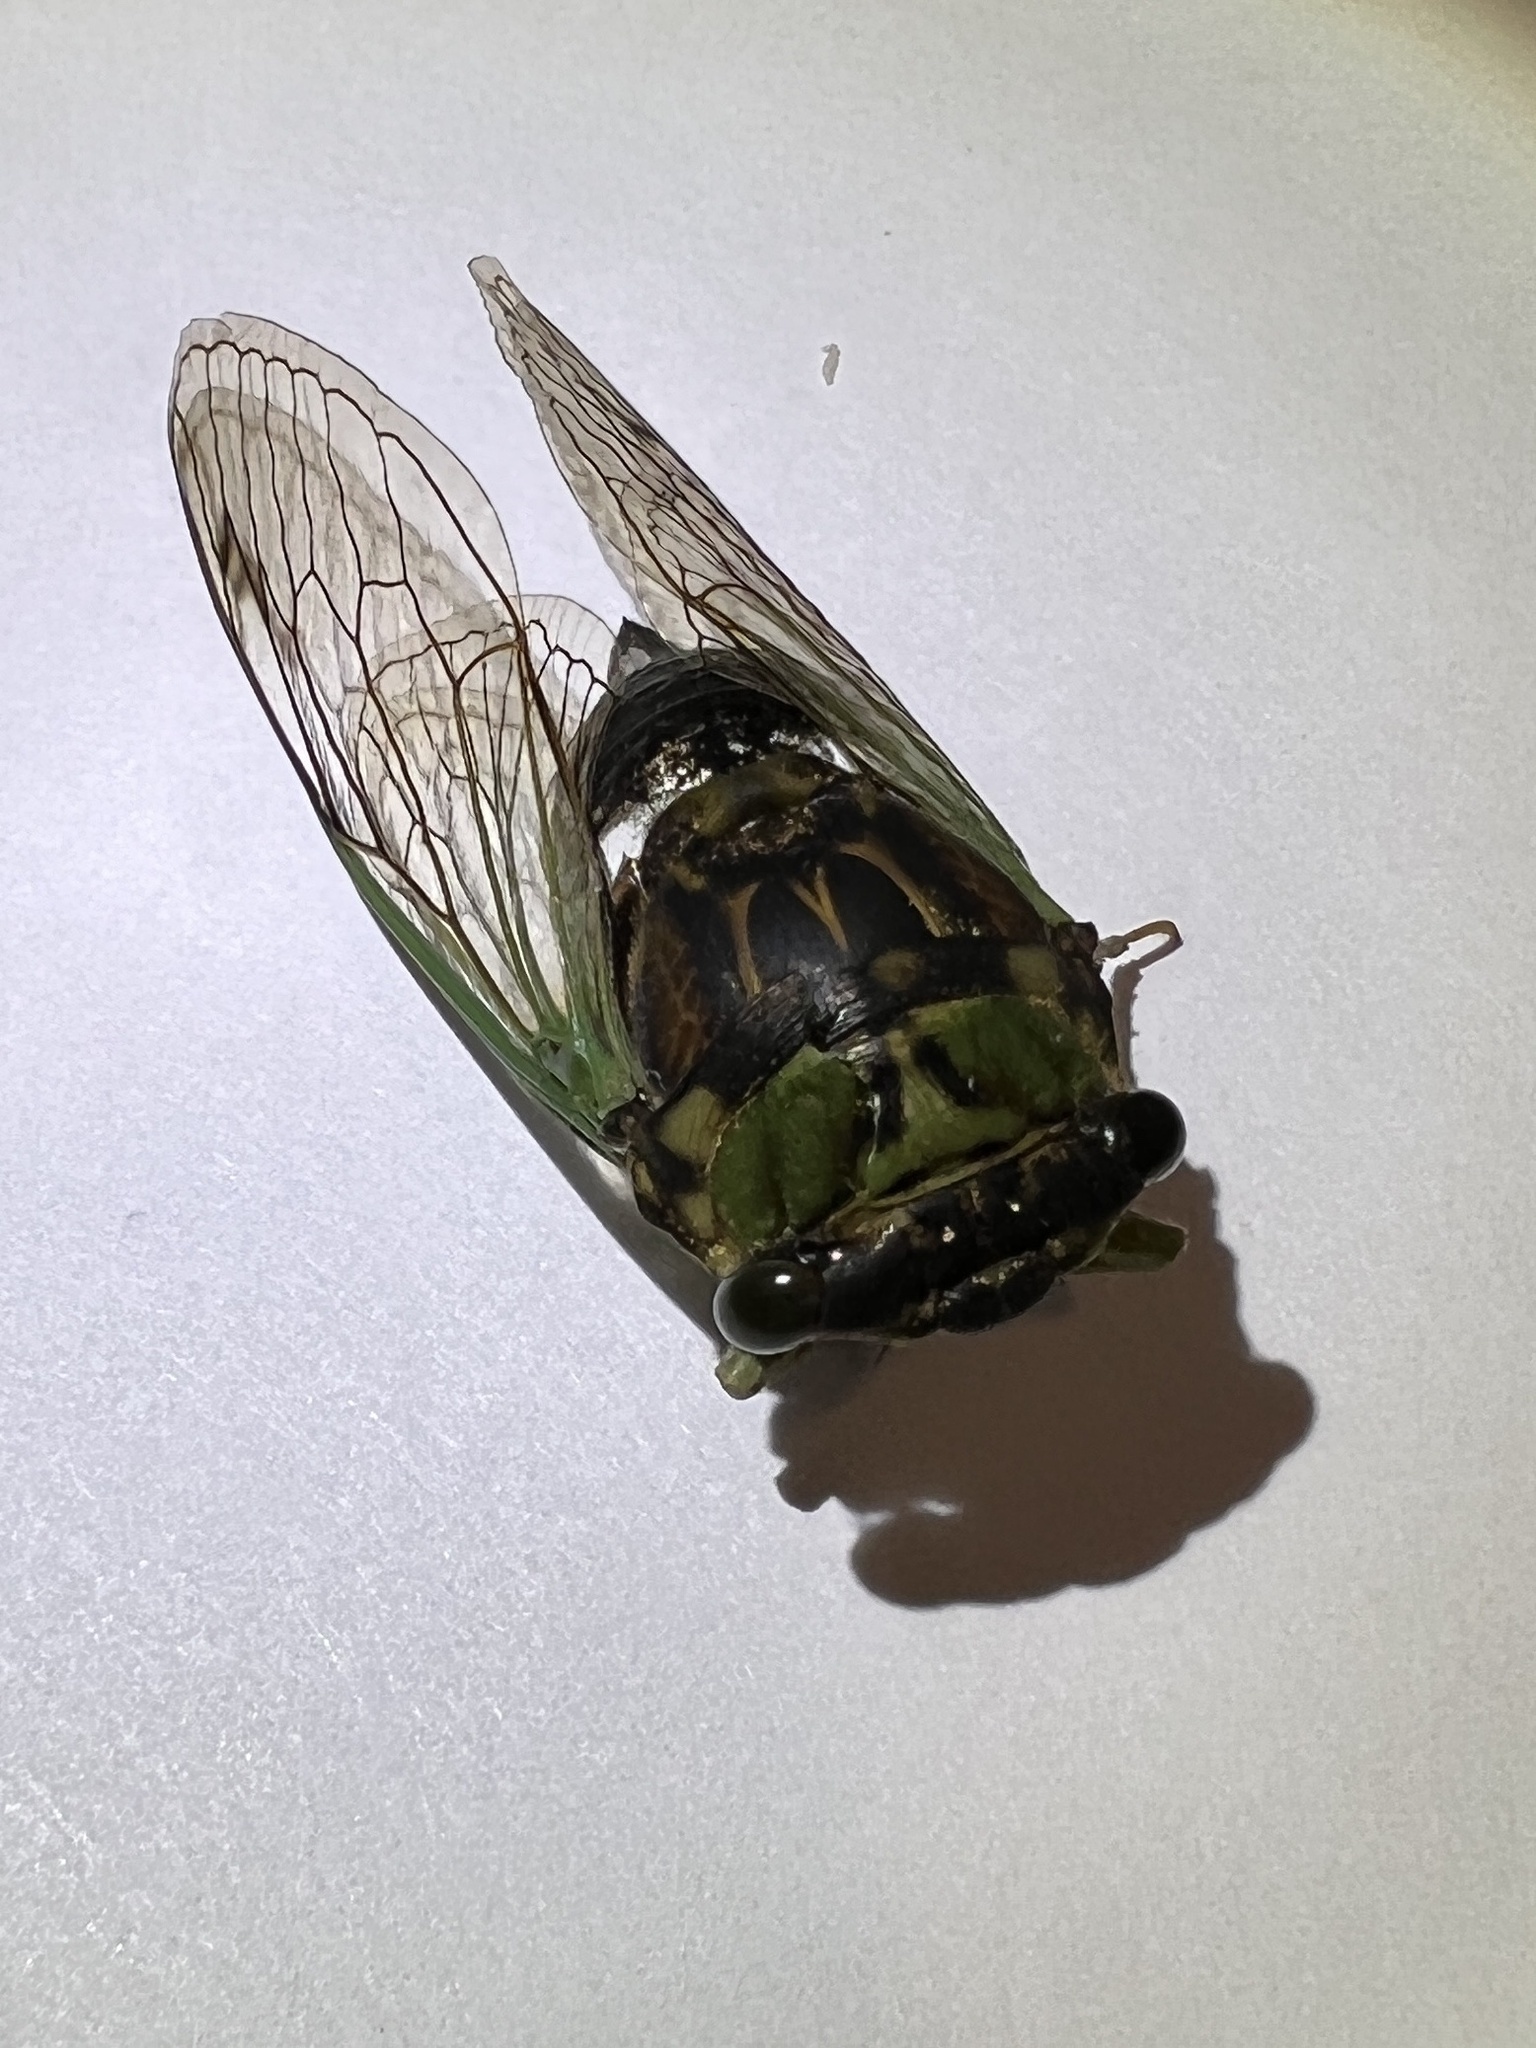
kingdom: Animalia
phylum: Arthropoda
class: Insecta
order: Hemiptera
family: Cicadidae
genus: Neotibicen
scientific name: Neotibicen tibicen
